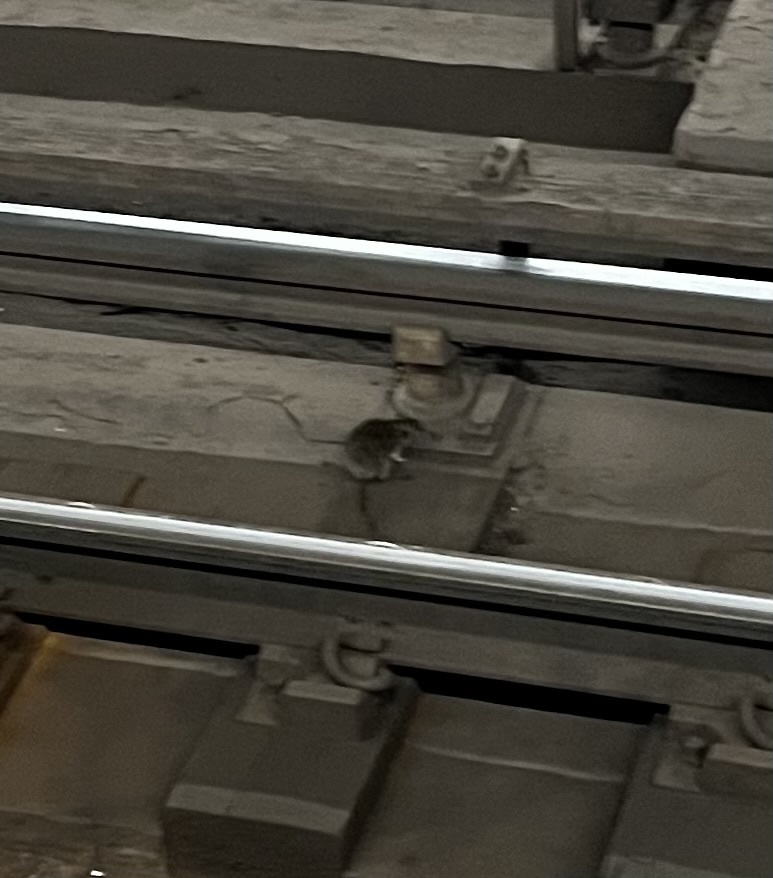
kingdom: Animalia
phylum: Chordata
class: Mammalia
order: Rodentia
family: Muridae
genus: Rattus
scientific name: Rattus norvegicus
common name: Brown rat
